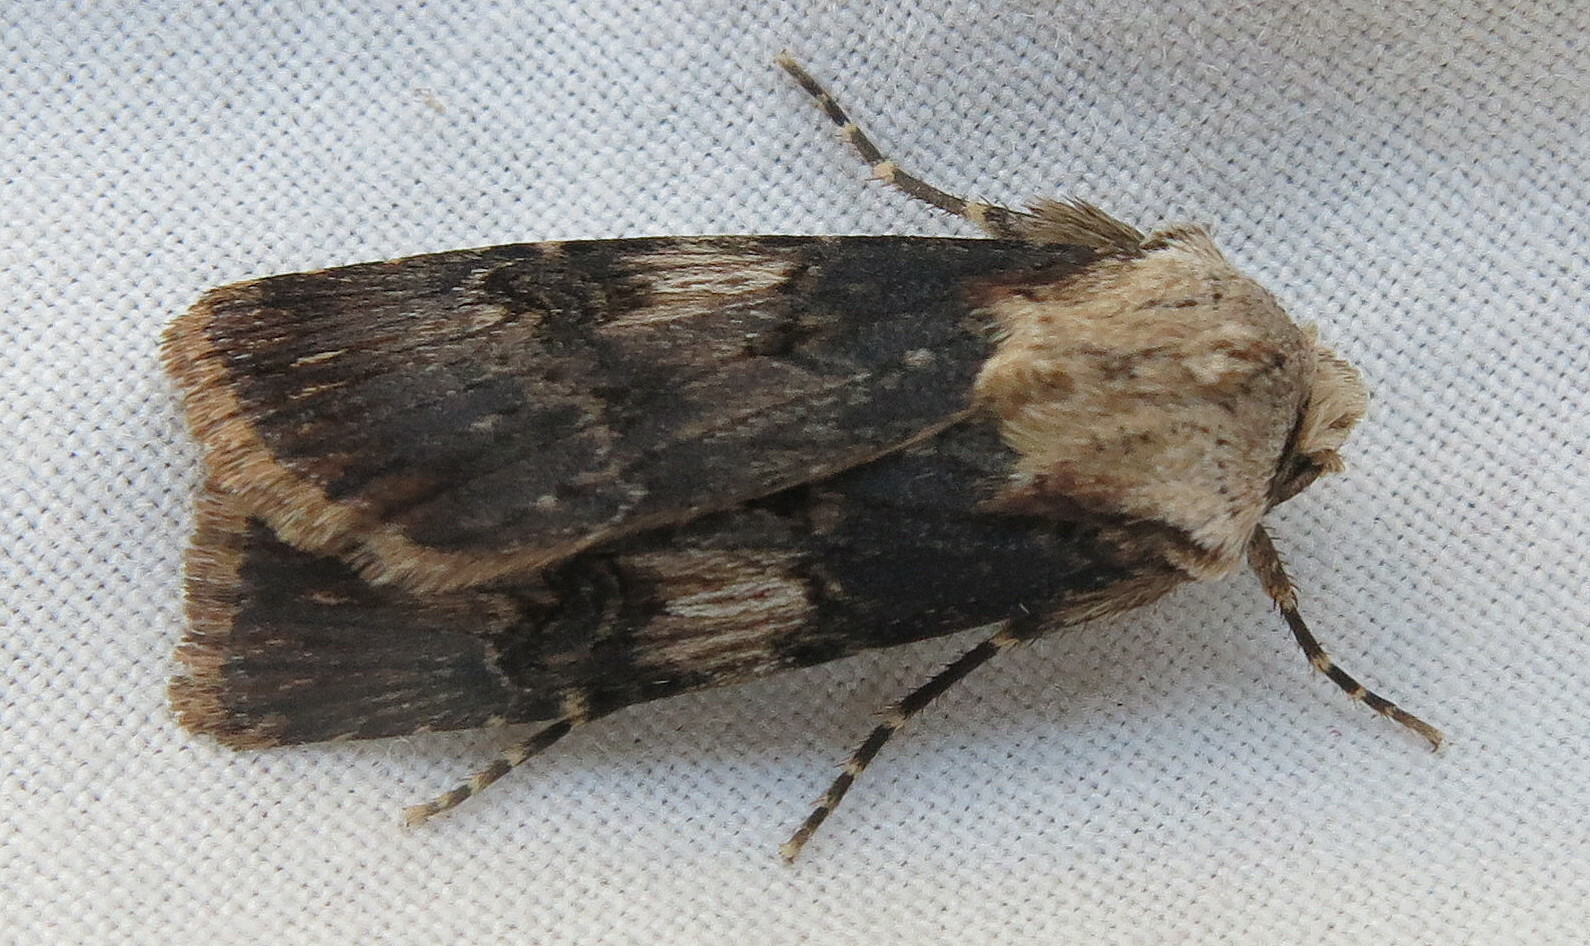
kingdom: Animalia
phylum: Arthropoda
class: Insecta
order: Lepidoptera
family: Noctuidae
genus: Agrotis
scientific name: Agrotis puta
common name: Shuttle-shaped dart
